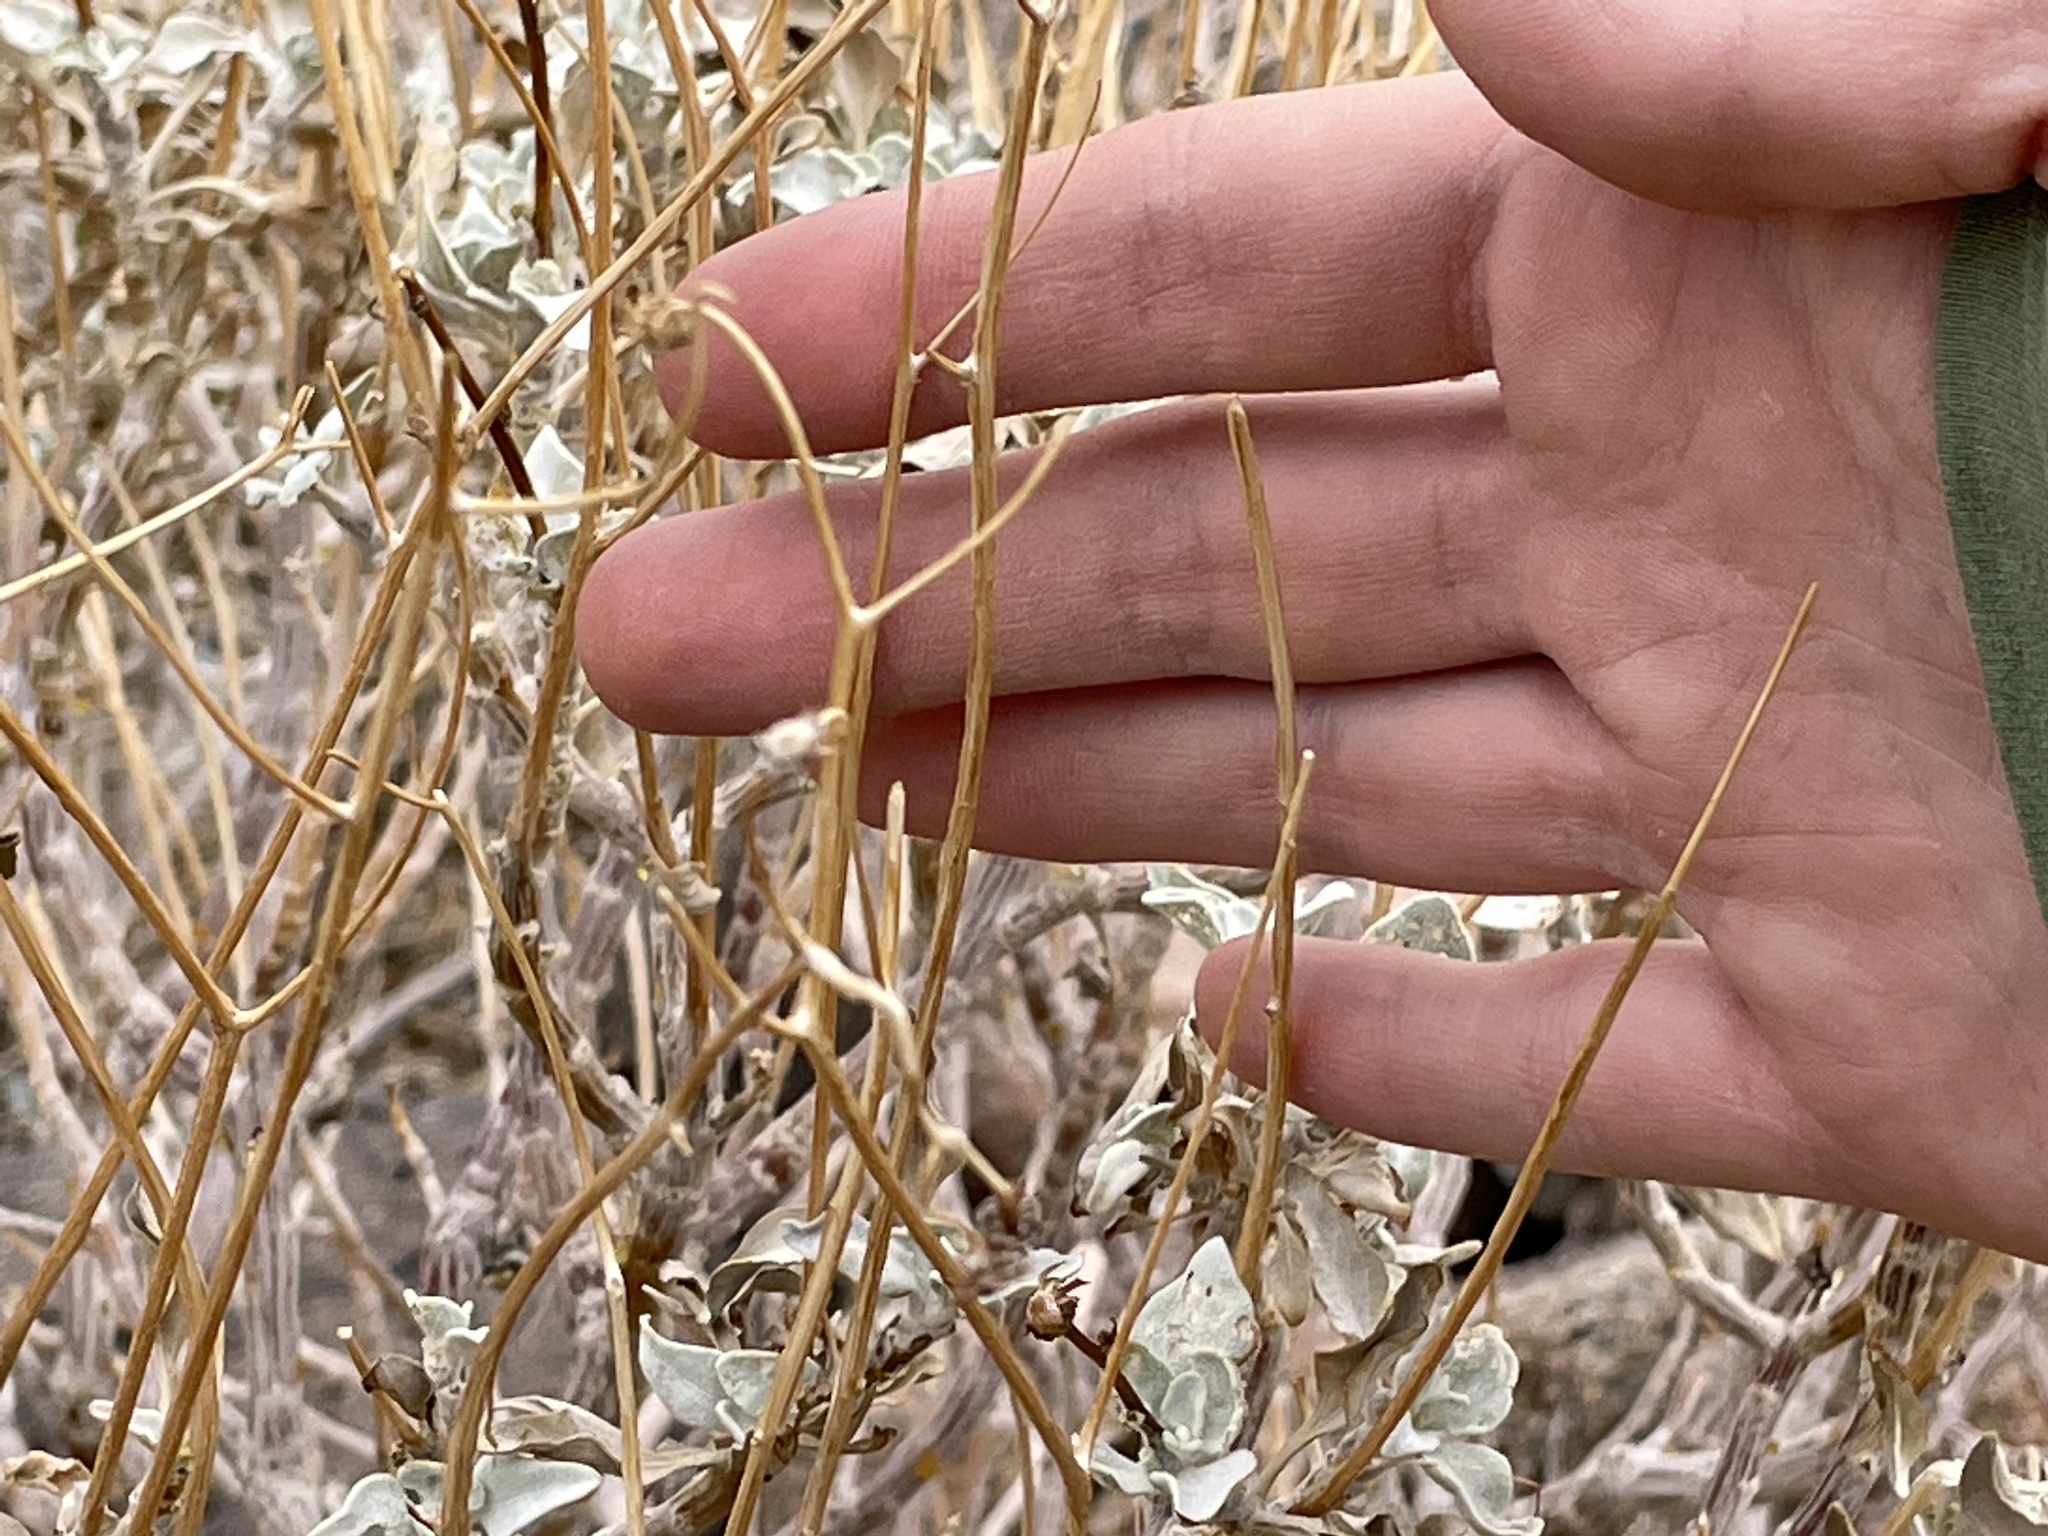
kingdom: Plantae
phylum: Tracheophyta
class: Magnoliopsida
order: Asterales
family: Asteraceae
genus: Encelia
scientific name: Encelia farinosa
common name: Brittlebush
